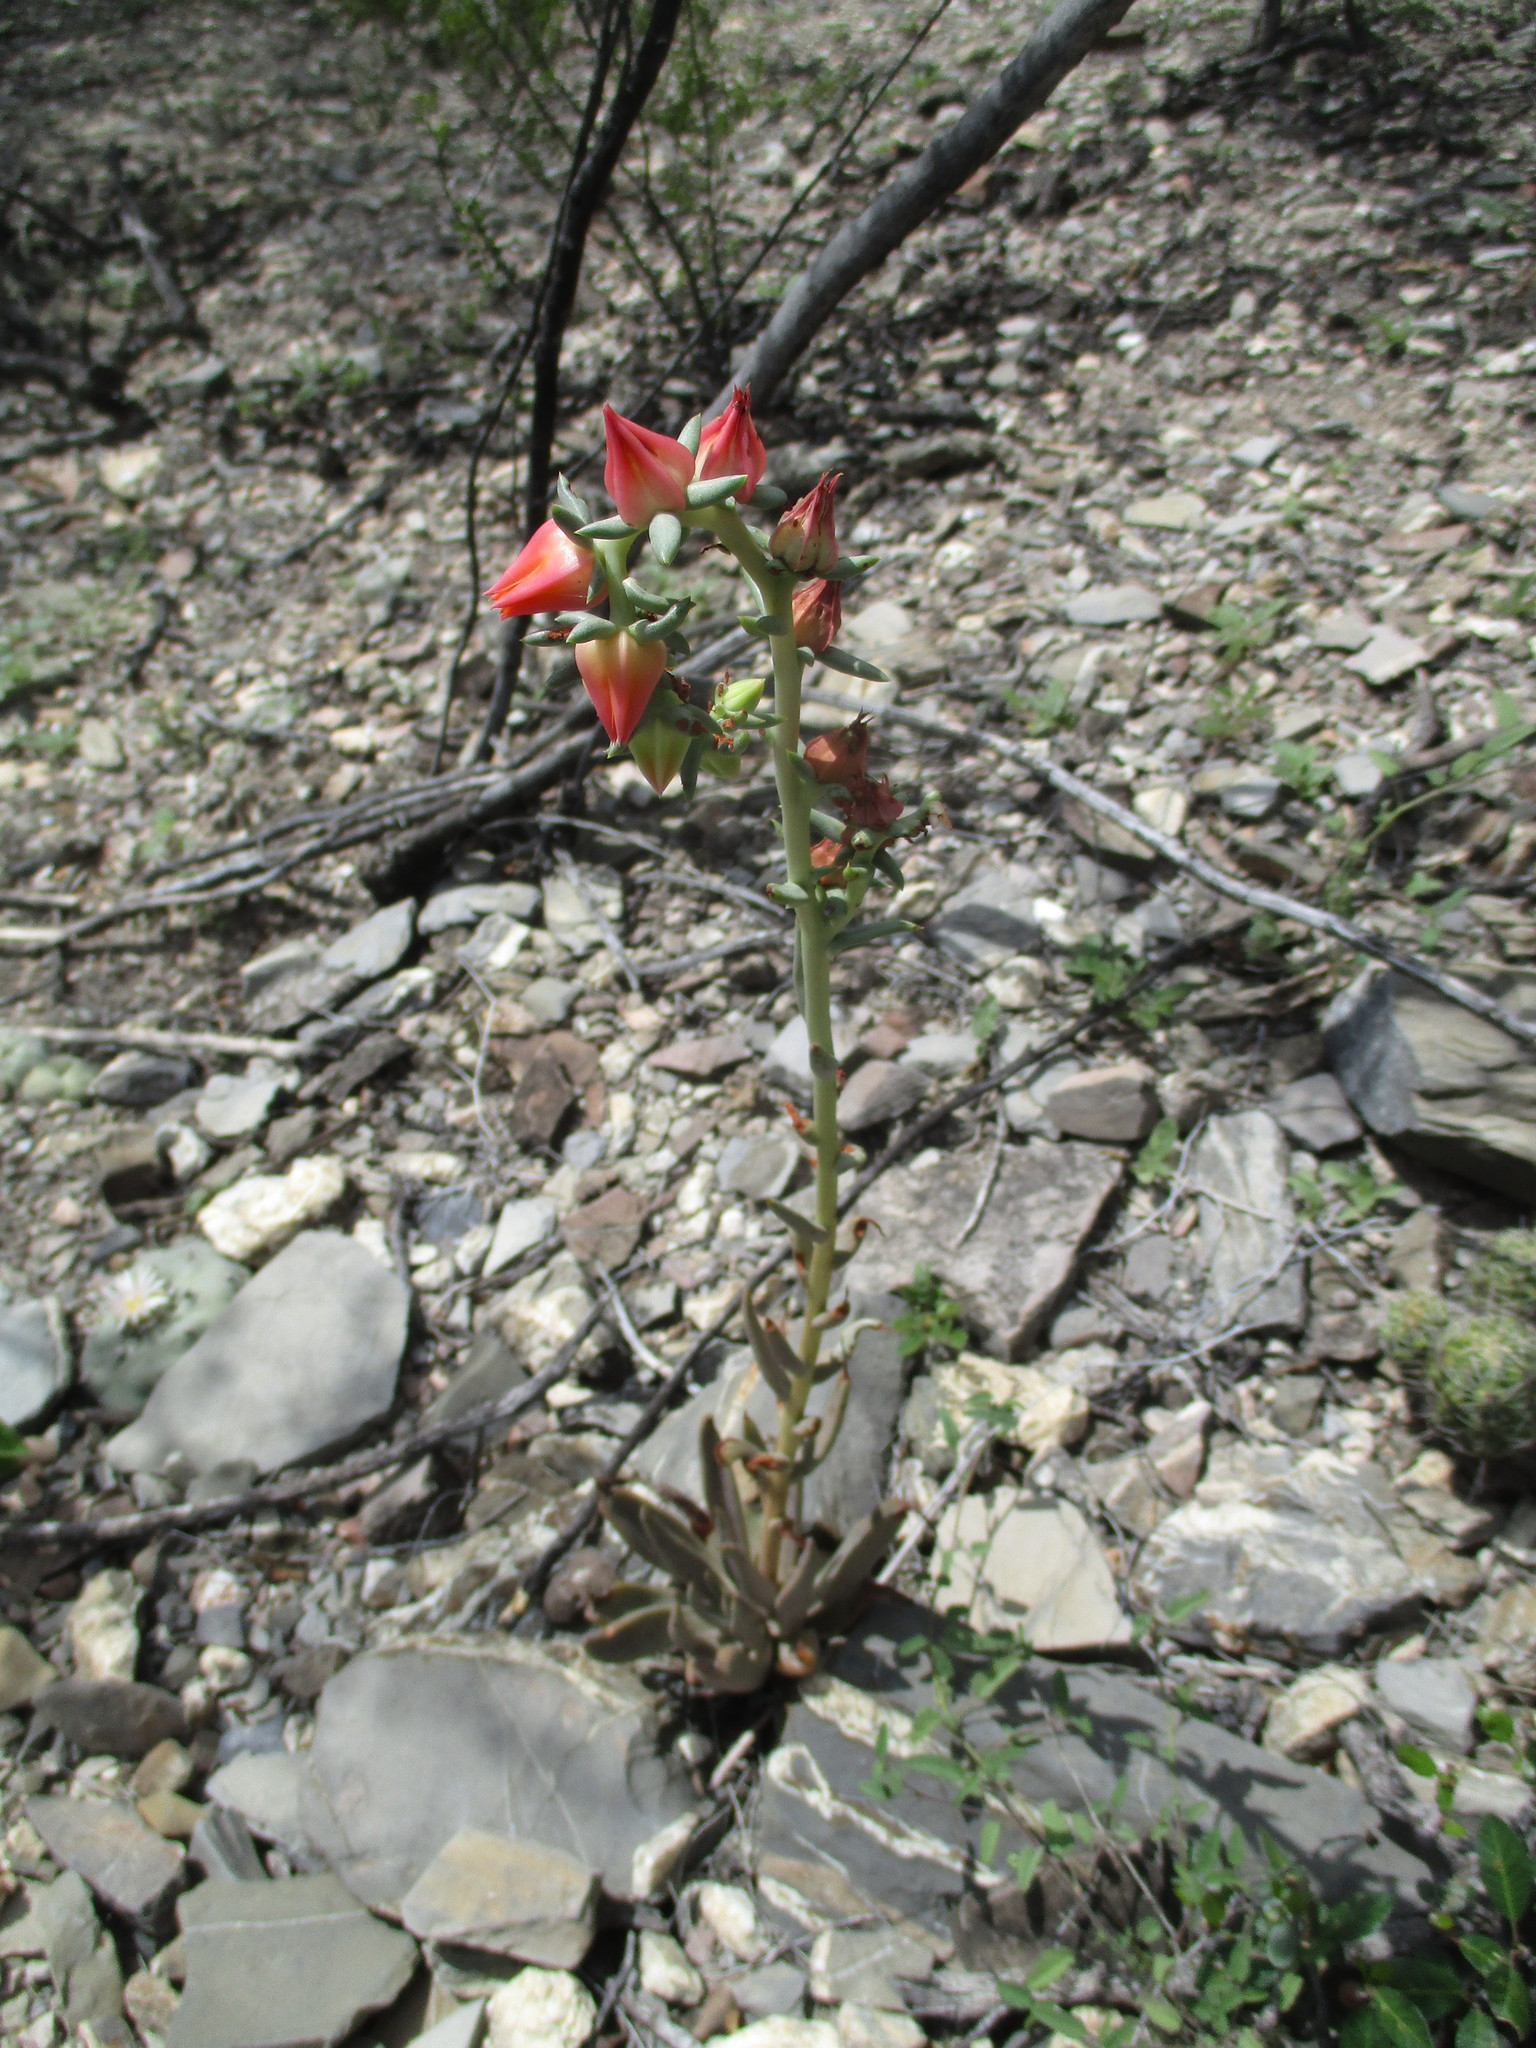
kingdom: Plantae
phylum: Tracheophyta
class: Magnoliopsida
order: Saxifragales
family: Crassulaceae
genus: Echeveria
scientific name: Echeveria bifida
